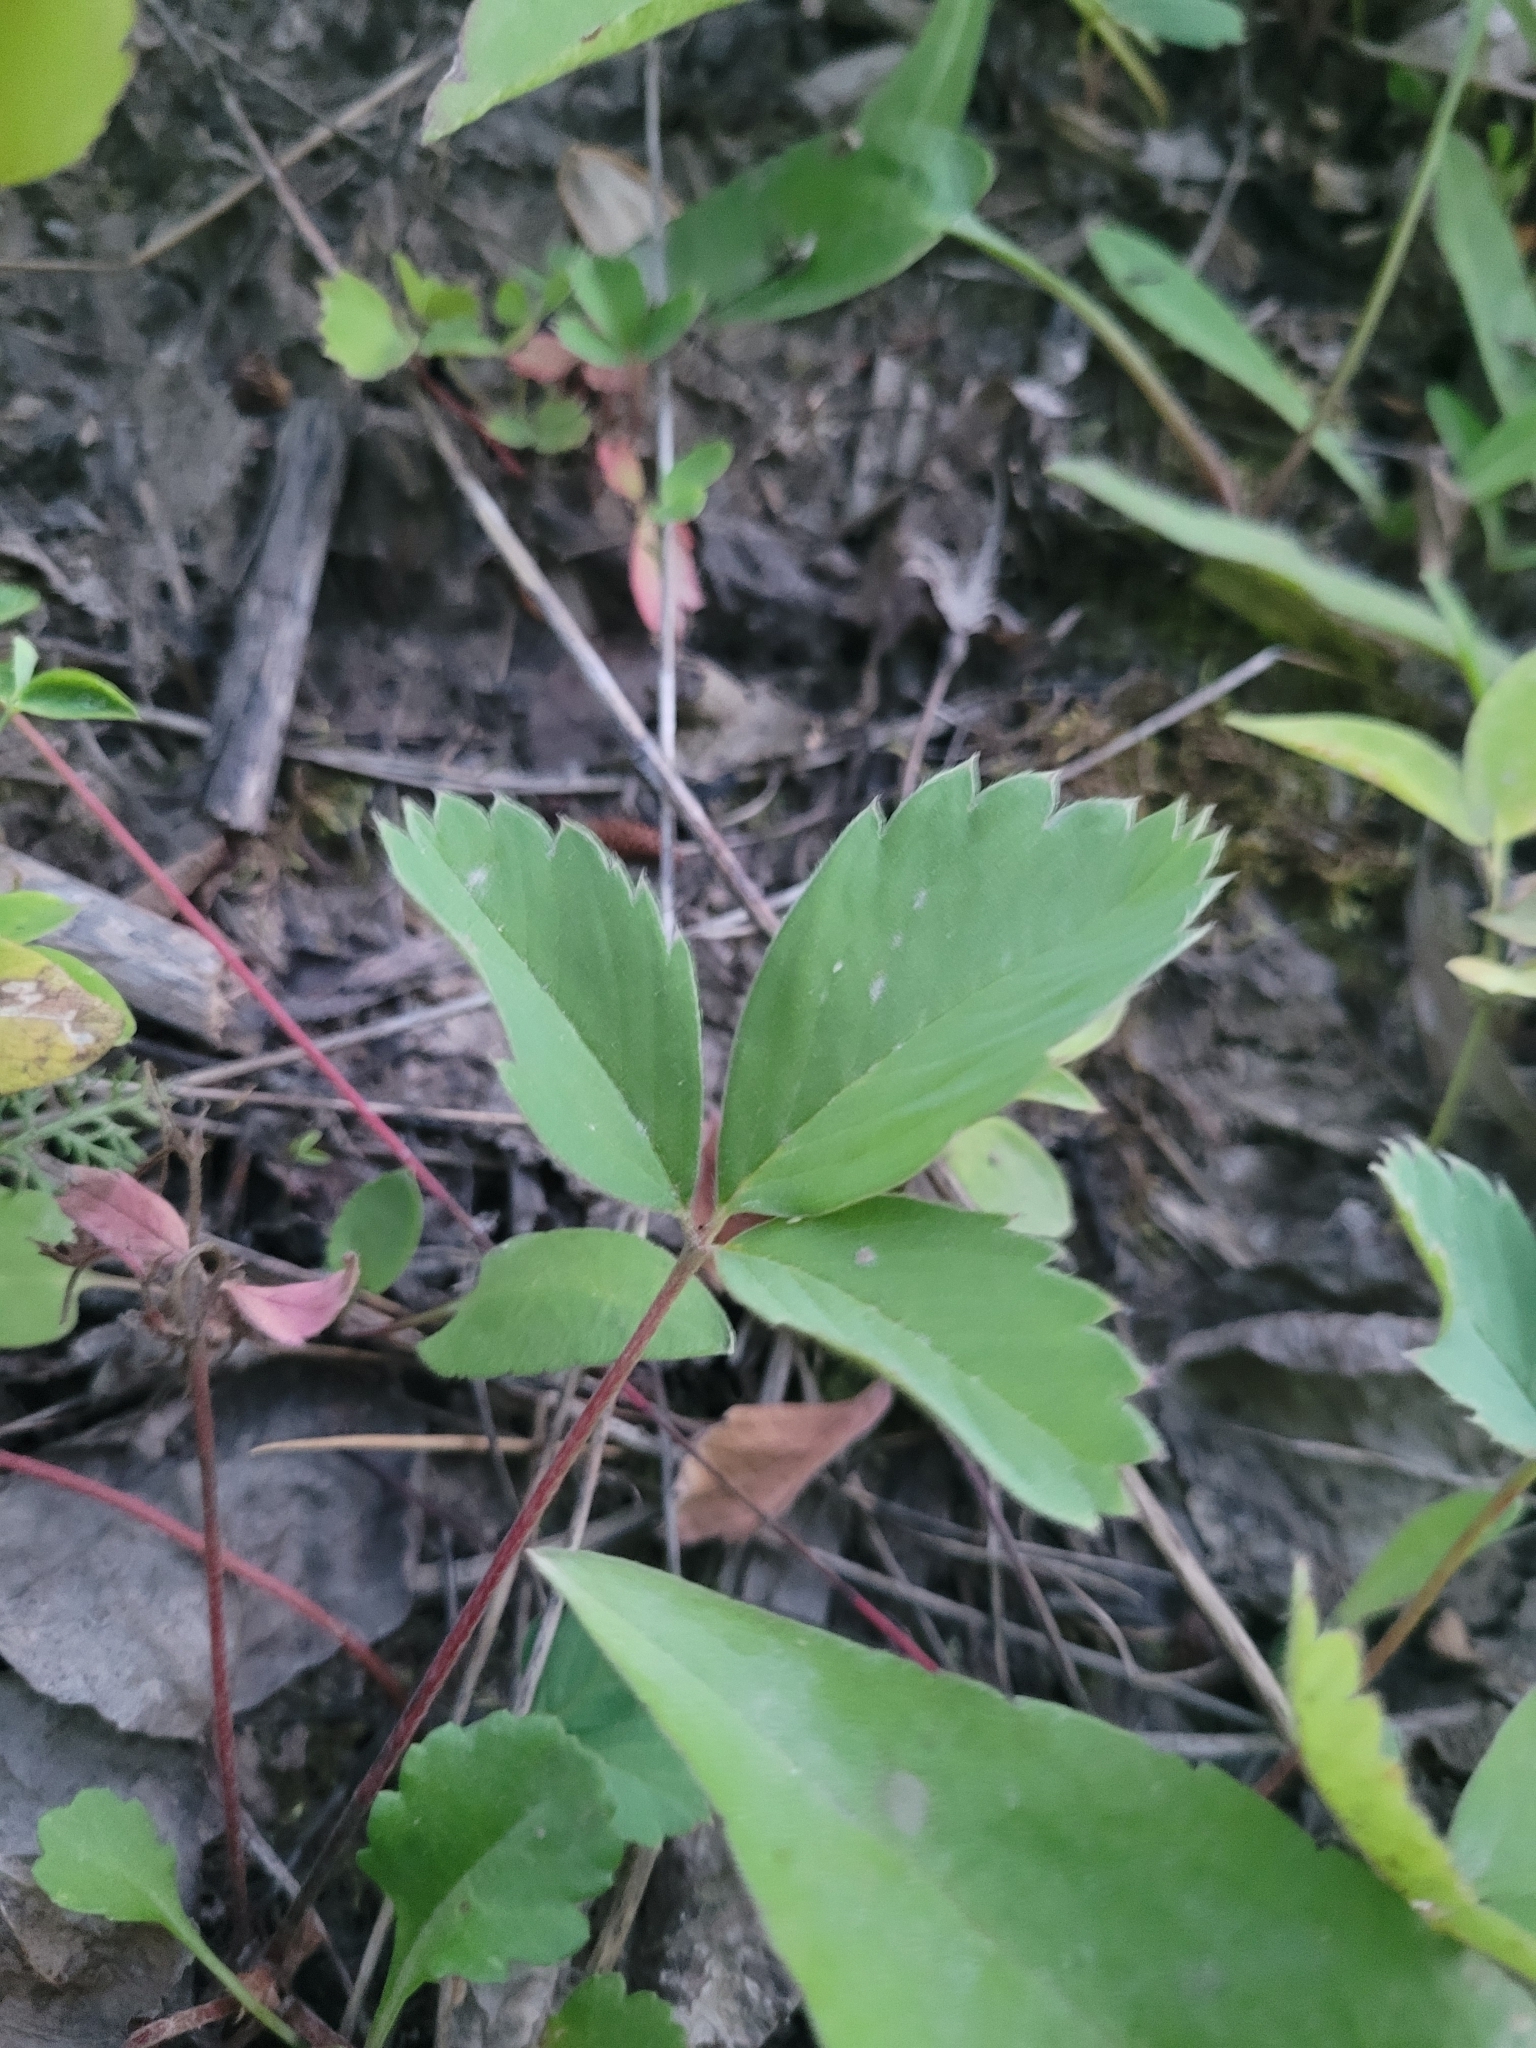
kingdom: Plantae
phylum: Tracheophyta
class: Magnoliopsida
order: Rosales
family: Rosaceae
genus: Fragaria
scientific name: Fragaria virginiana
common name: Thickleaved wild strawberry
